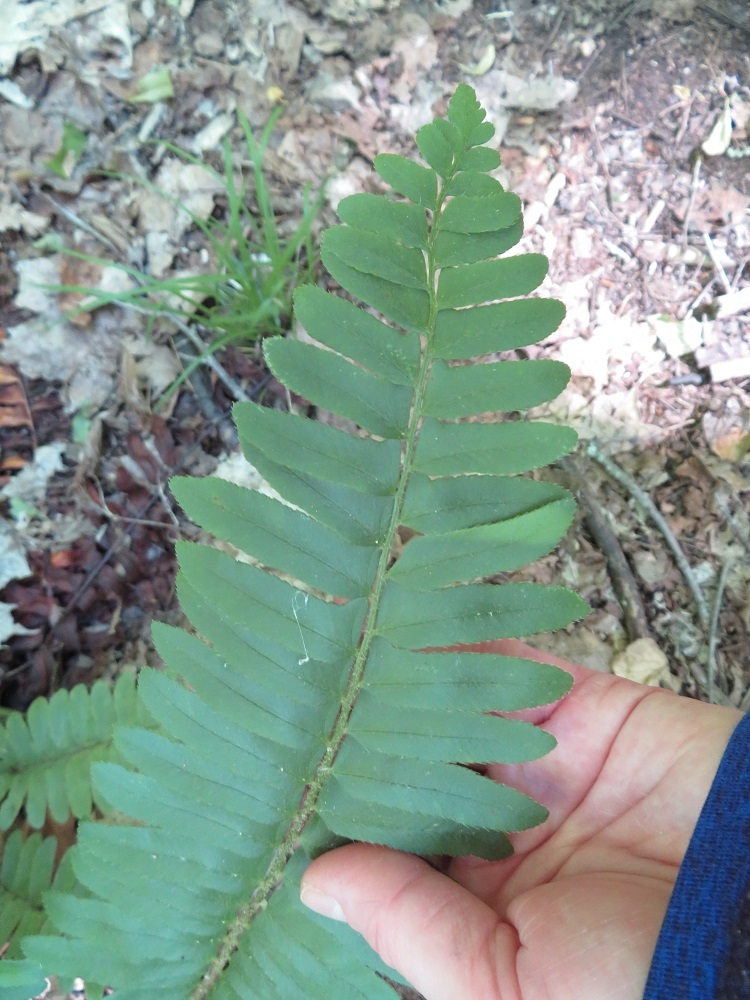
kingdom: Plantae
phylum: Tracheophyta
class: Polypodiopsida
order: Polypodiales
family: Dryopteridaceae
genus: Polystichum
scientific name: Polystichum acrostichoides
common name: Christmas fern
